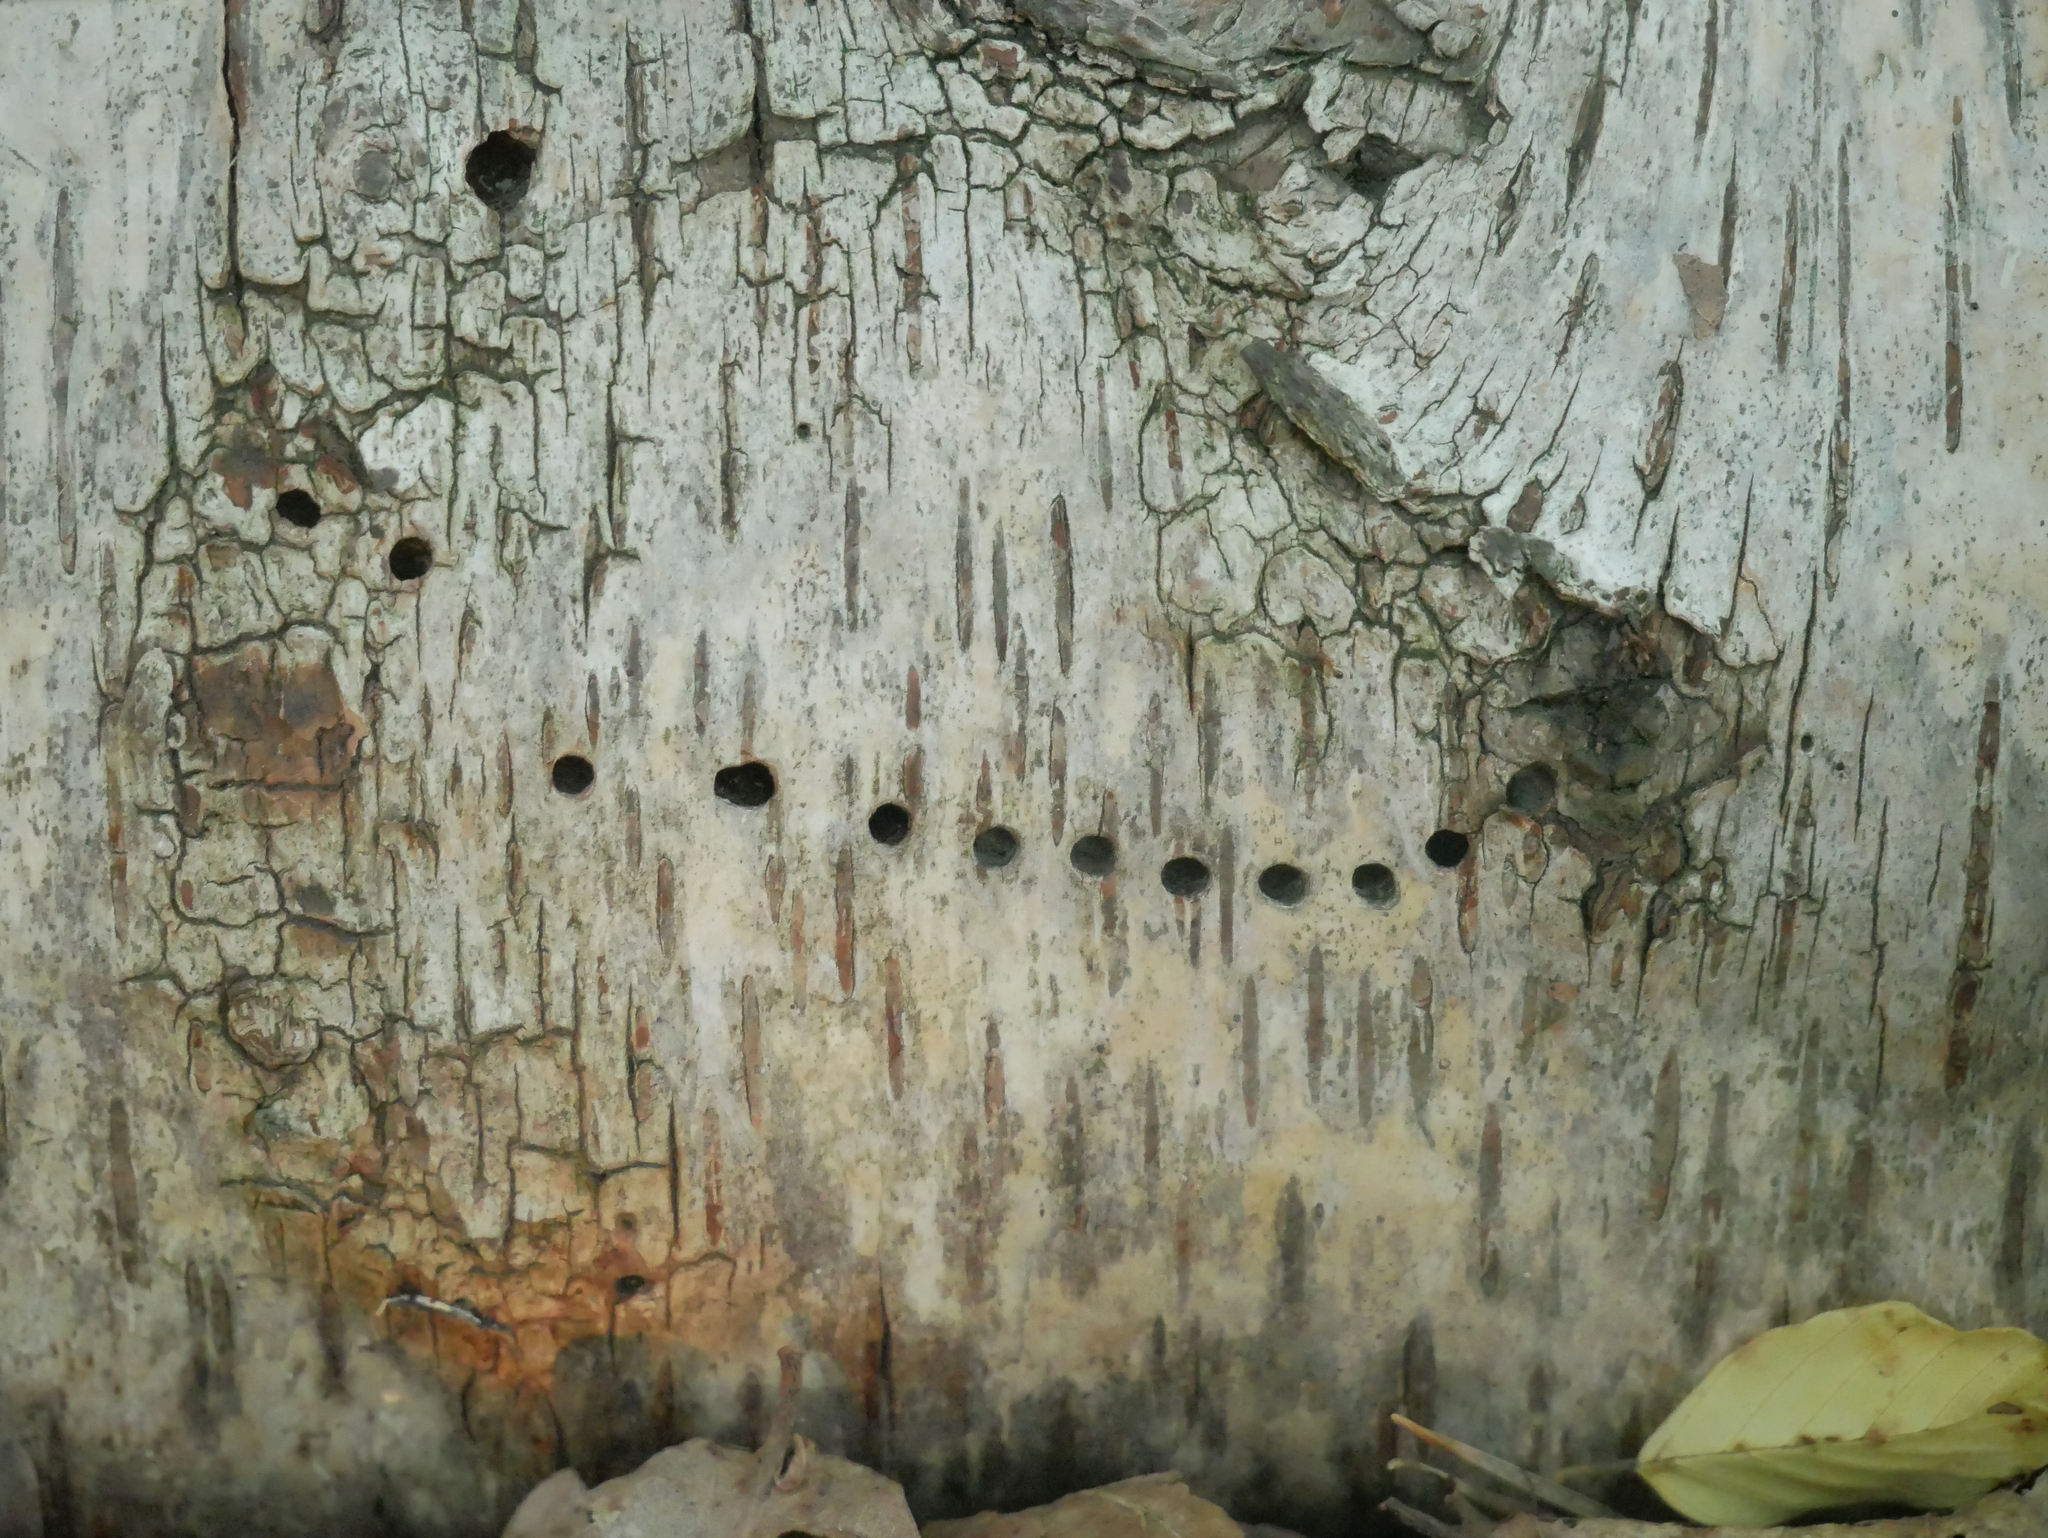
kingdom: Animalia
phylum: Arthropoda
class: Insecta
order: Coleoptera
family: Curculionidae
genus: Scolytus
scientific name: Scolytus ratzeburgii
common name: Birch bark beetle
